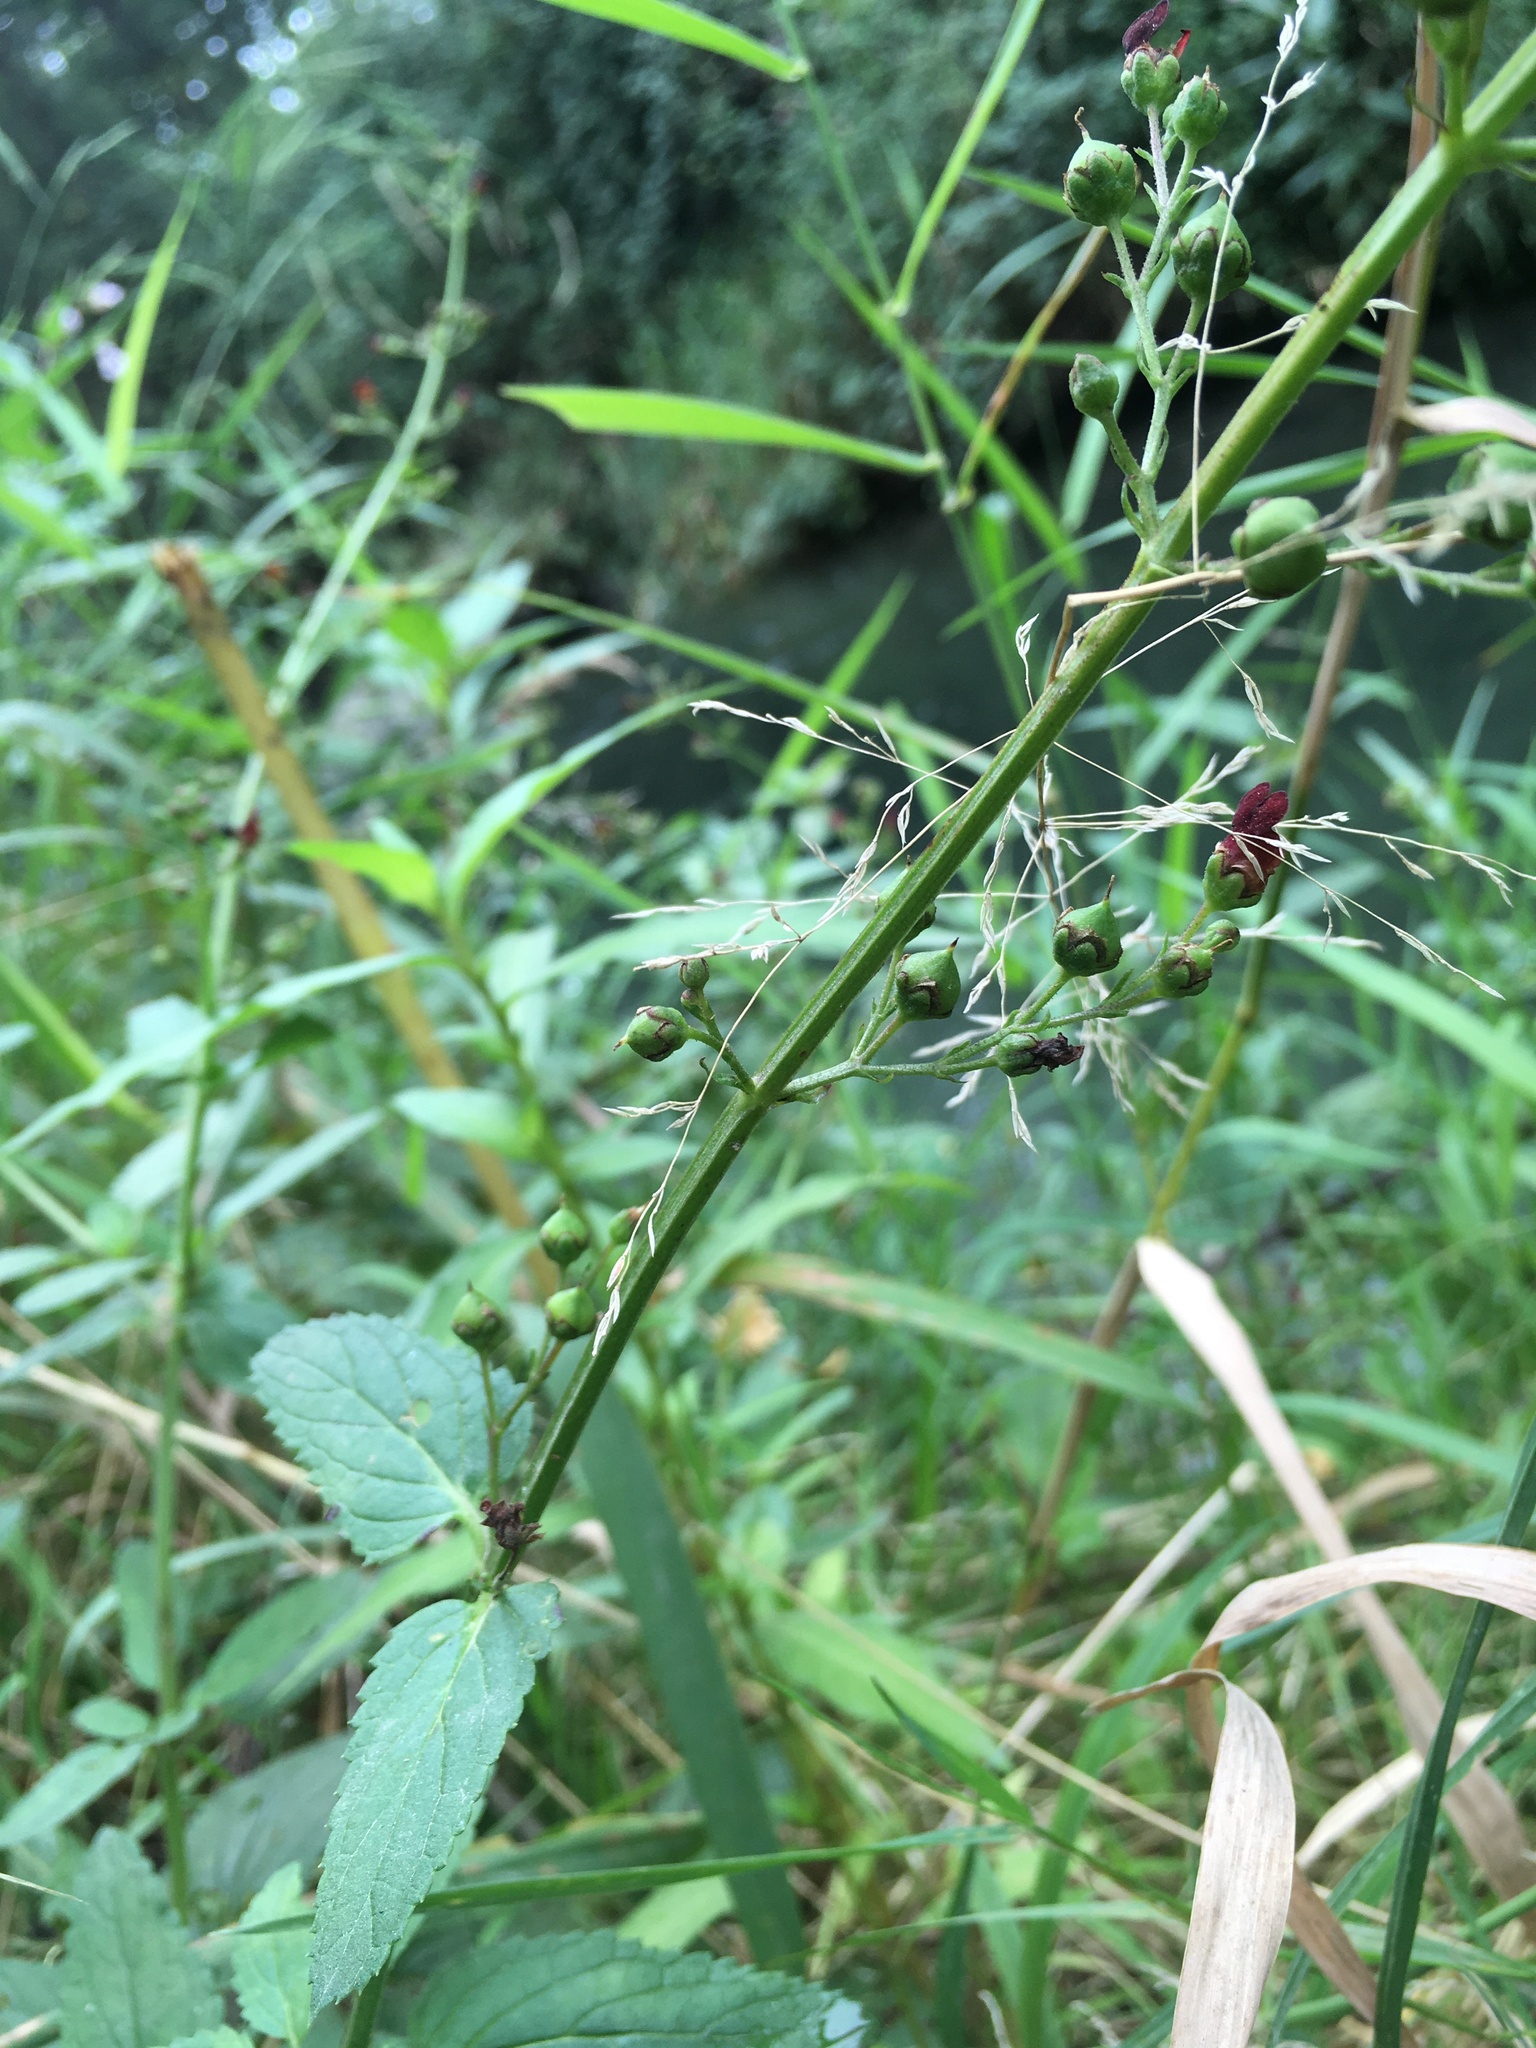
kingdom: Plantae
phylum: Tracheophyta
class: Magnoliopsida
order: Lamiales
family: Scrophulariaceae
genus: Scrophularia
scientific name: Scrophularia auriculata
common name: Water betony
